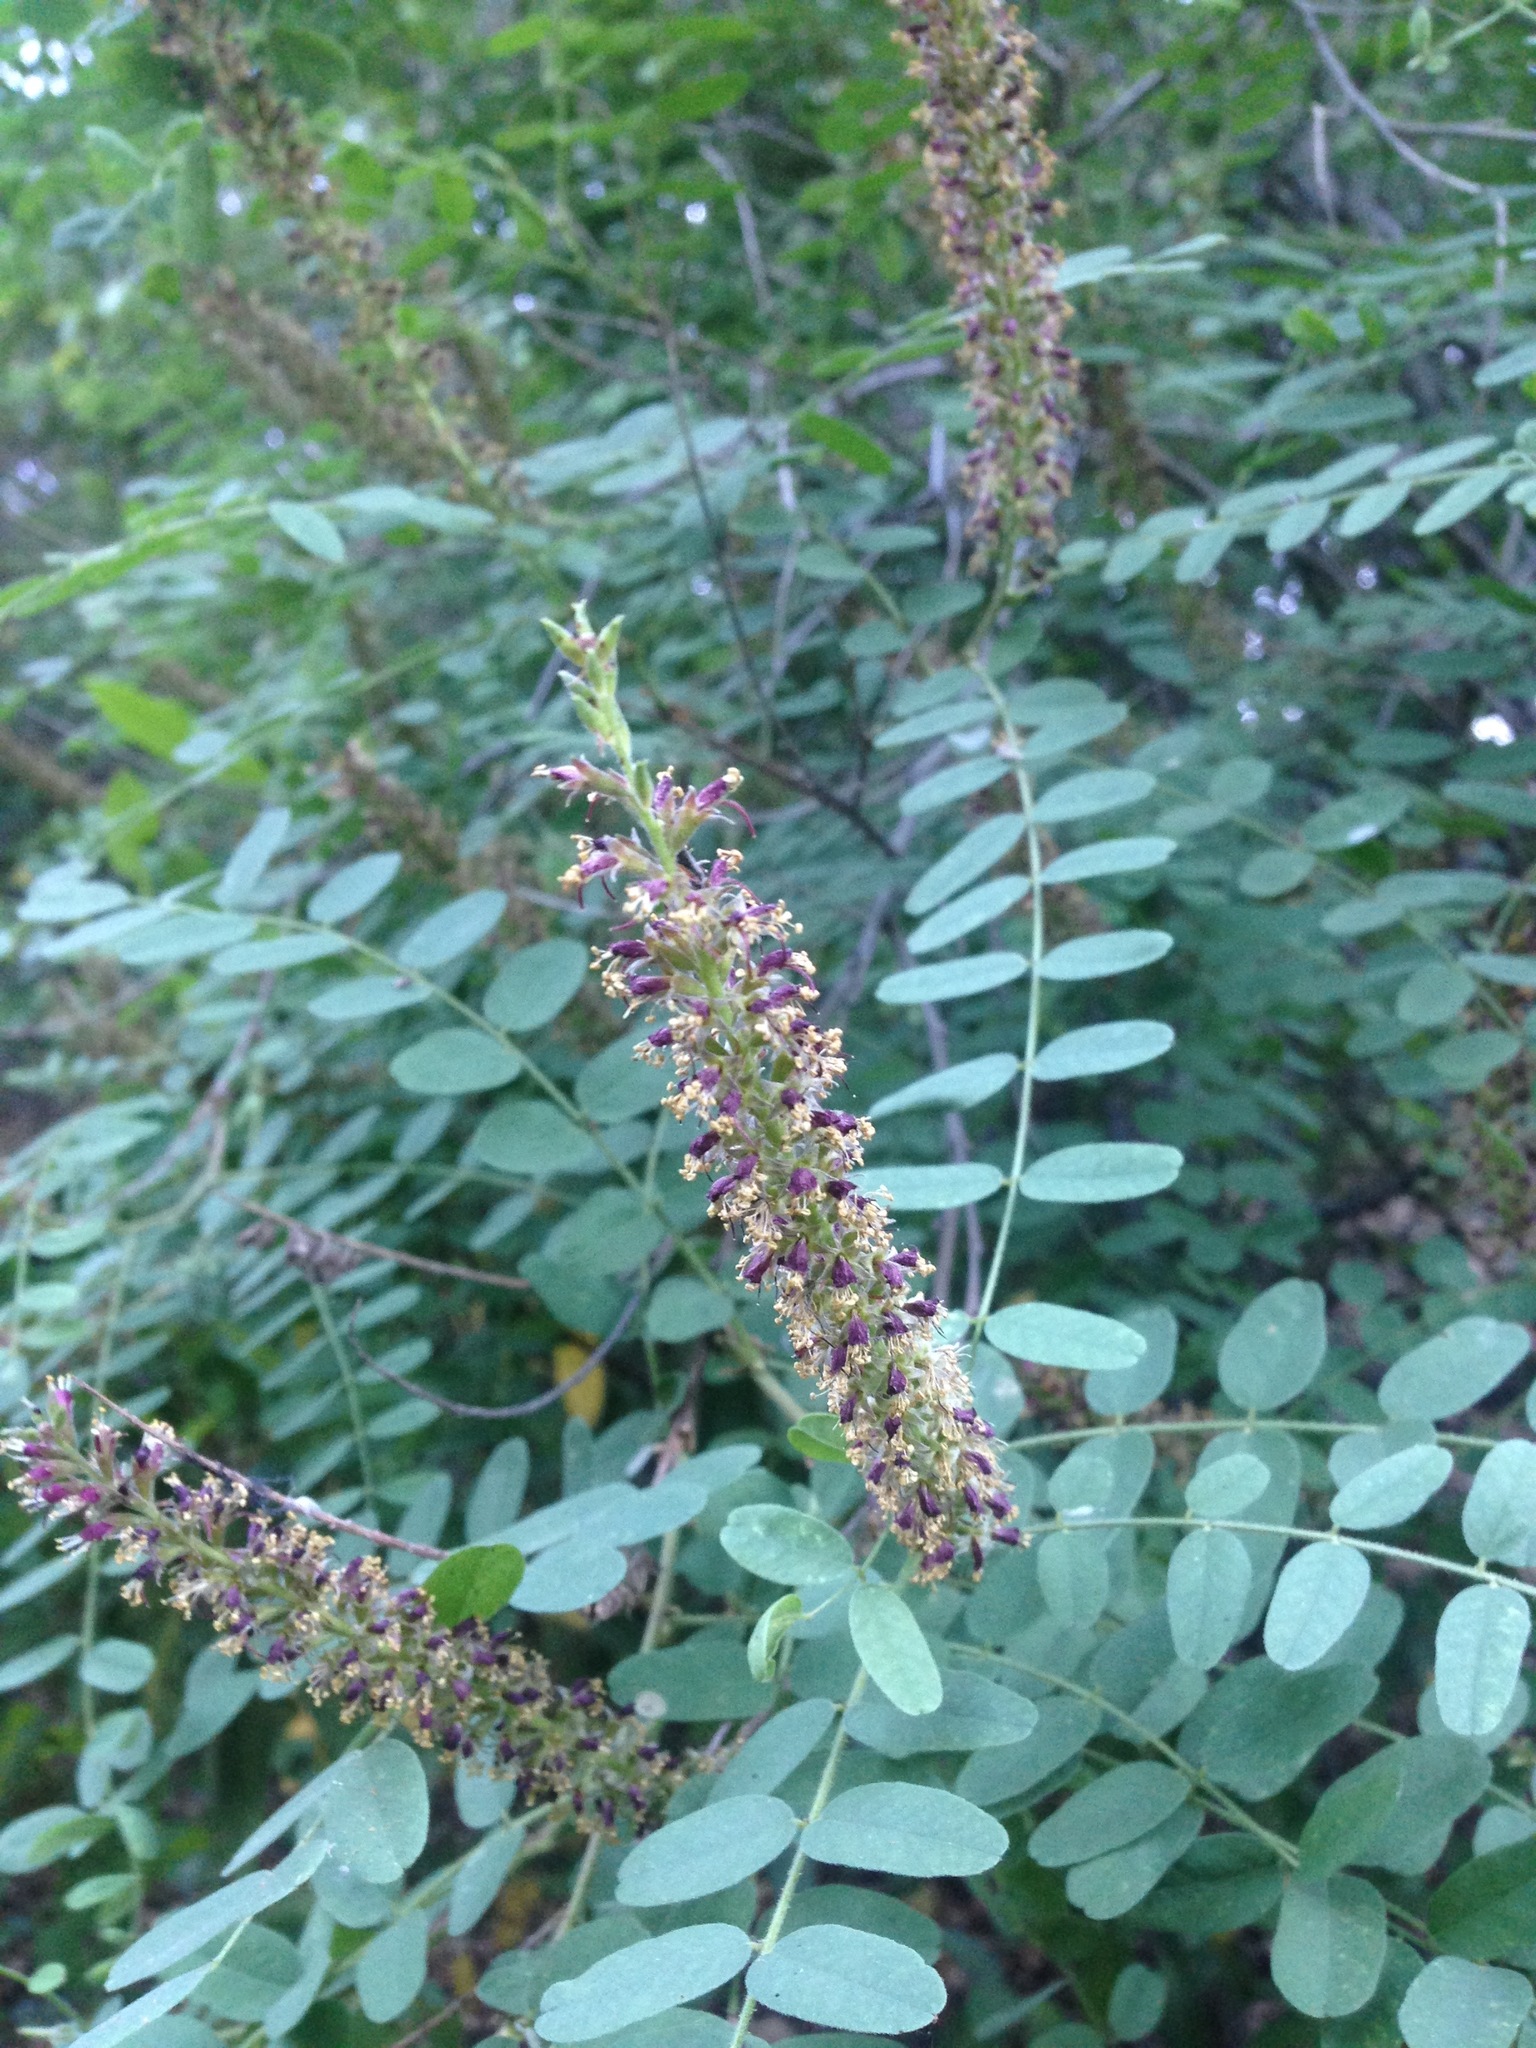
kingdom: Plantae
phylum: Tracheophyta
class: Magnoliopsida
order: Fabales
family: Fabaceae
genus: Amorpha
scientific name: Amorpha californica
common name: California indigobush
